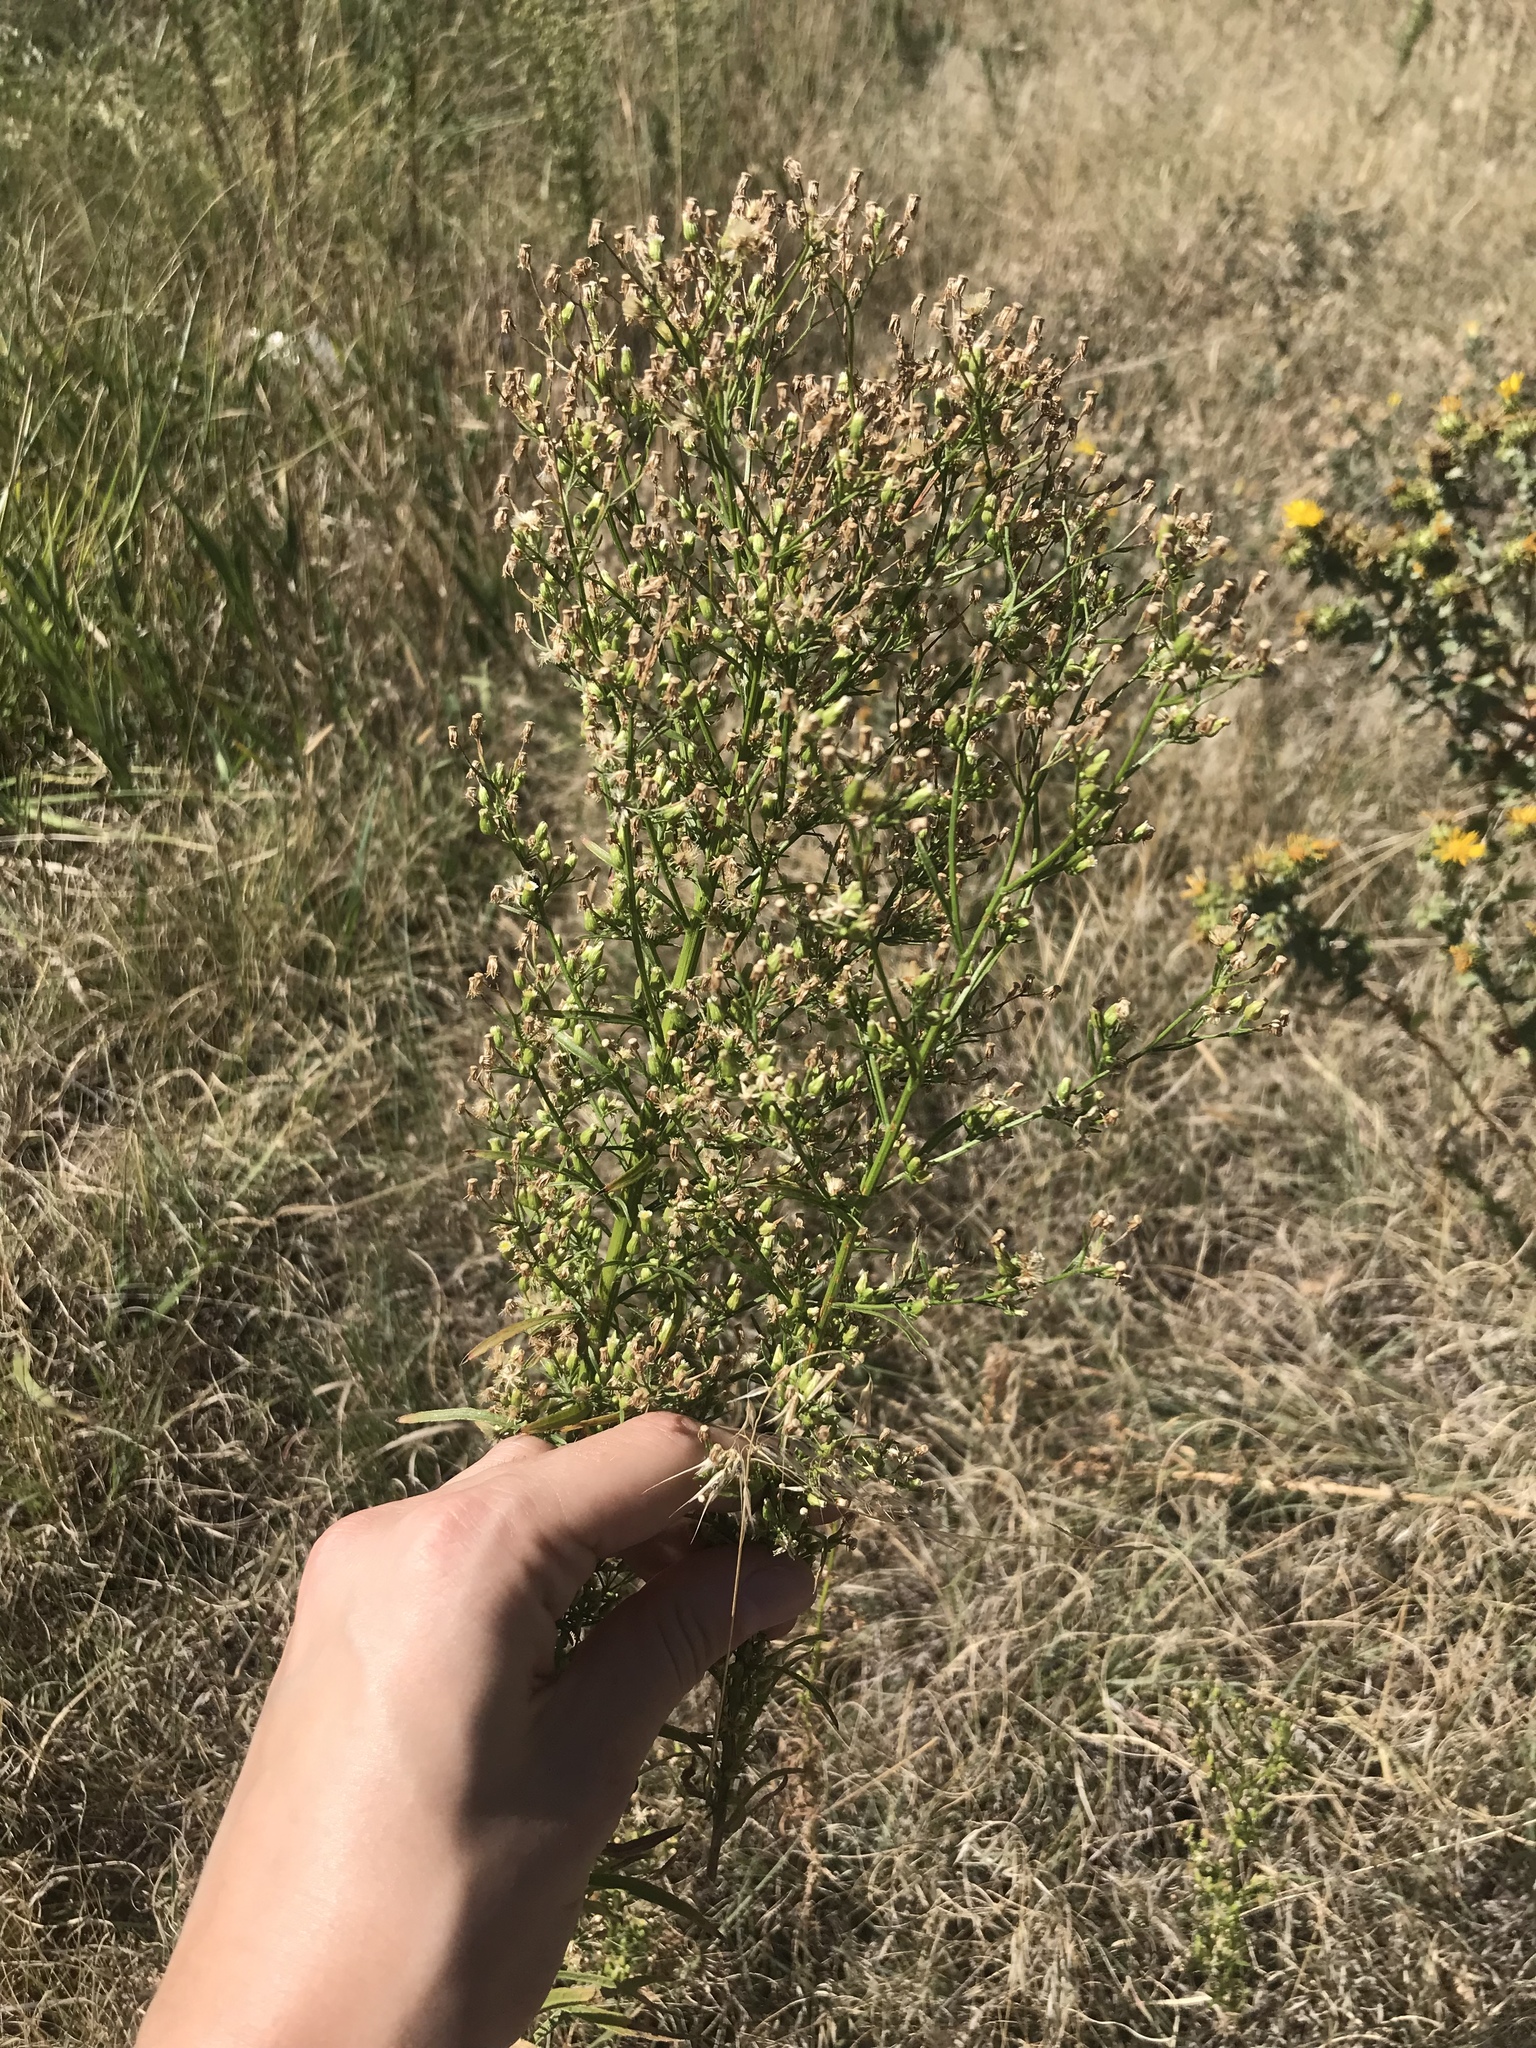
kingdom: Plantae
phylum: Tracheophyta
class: Magnoliopsida
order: Asterales
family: Asteraceae
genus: Erigeron
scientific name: Erigeron canadensis
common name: Canadian fleabane
